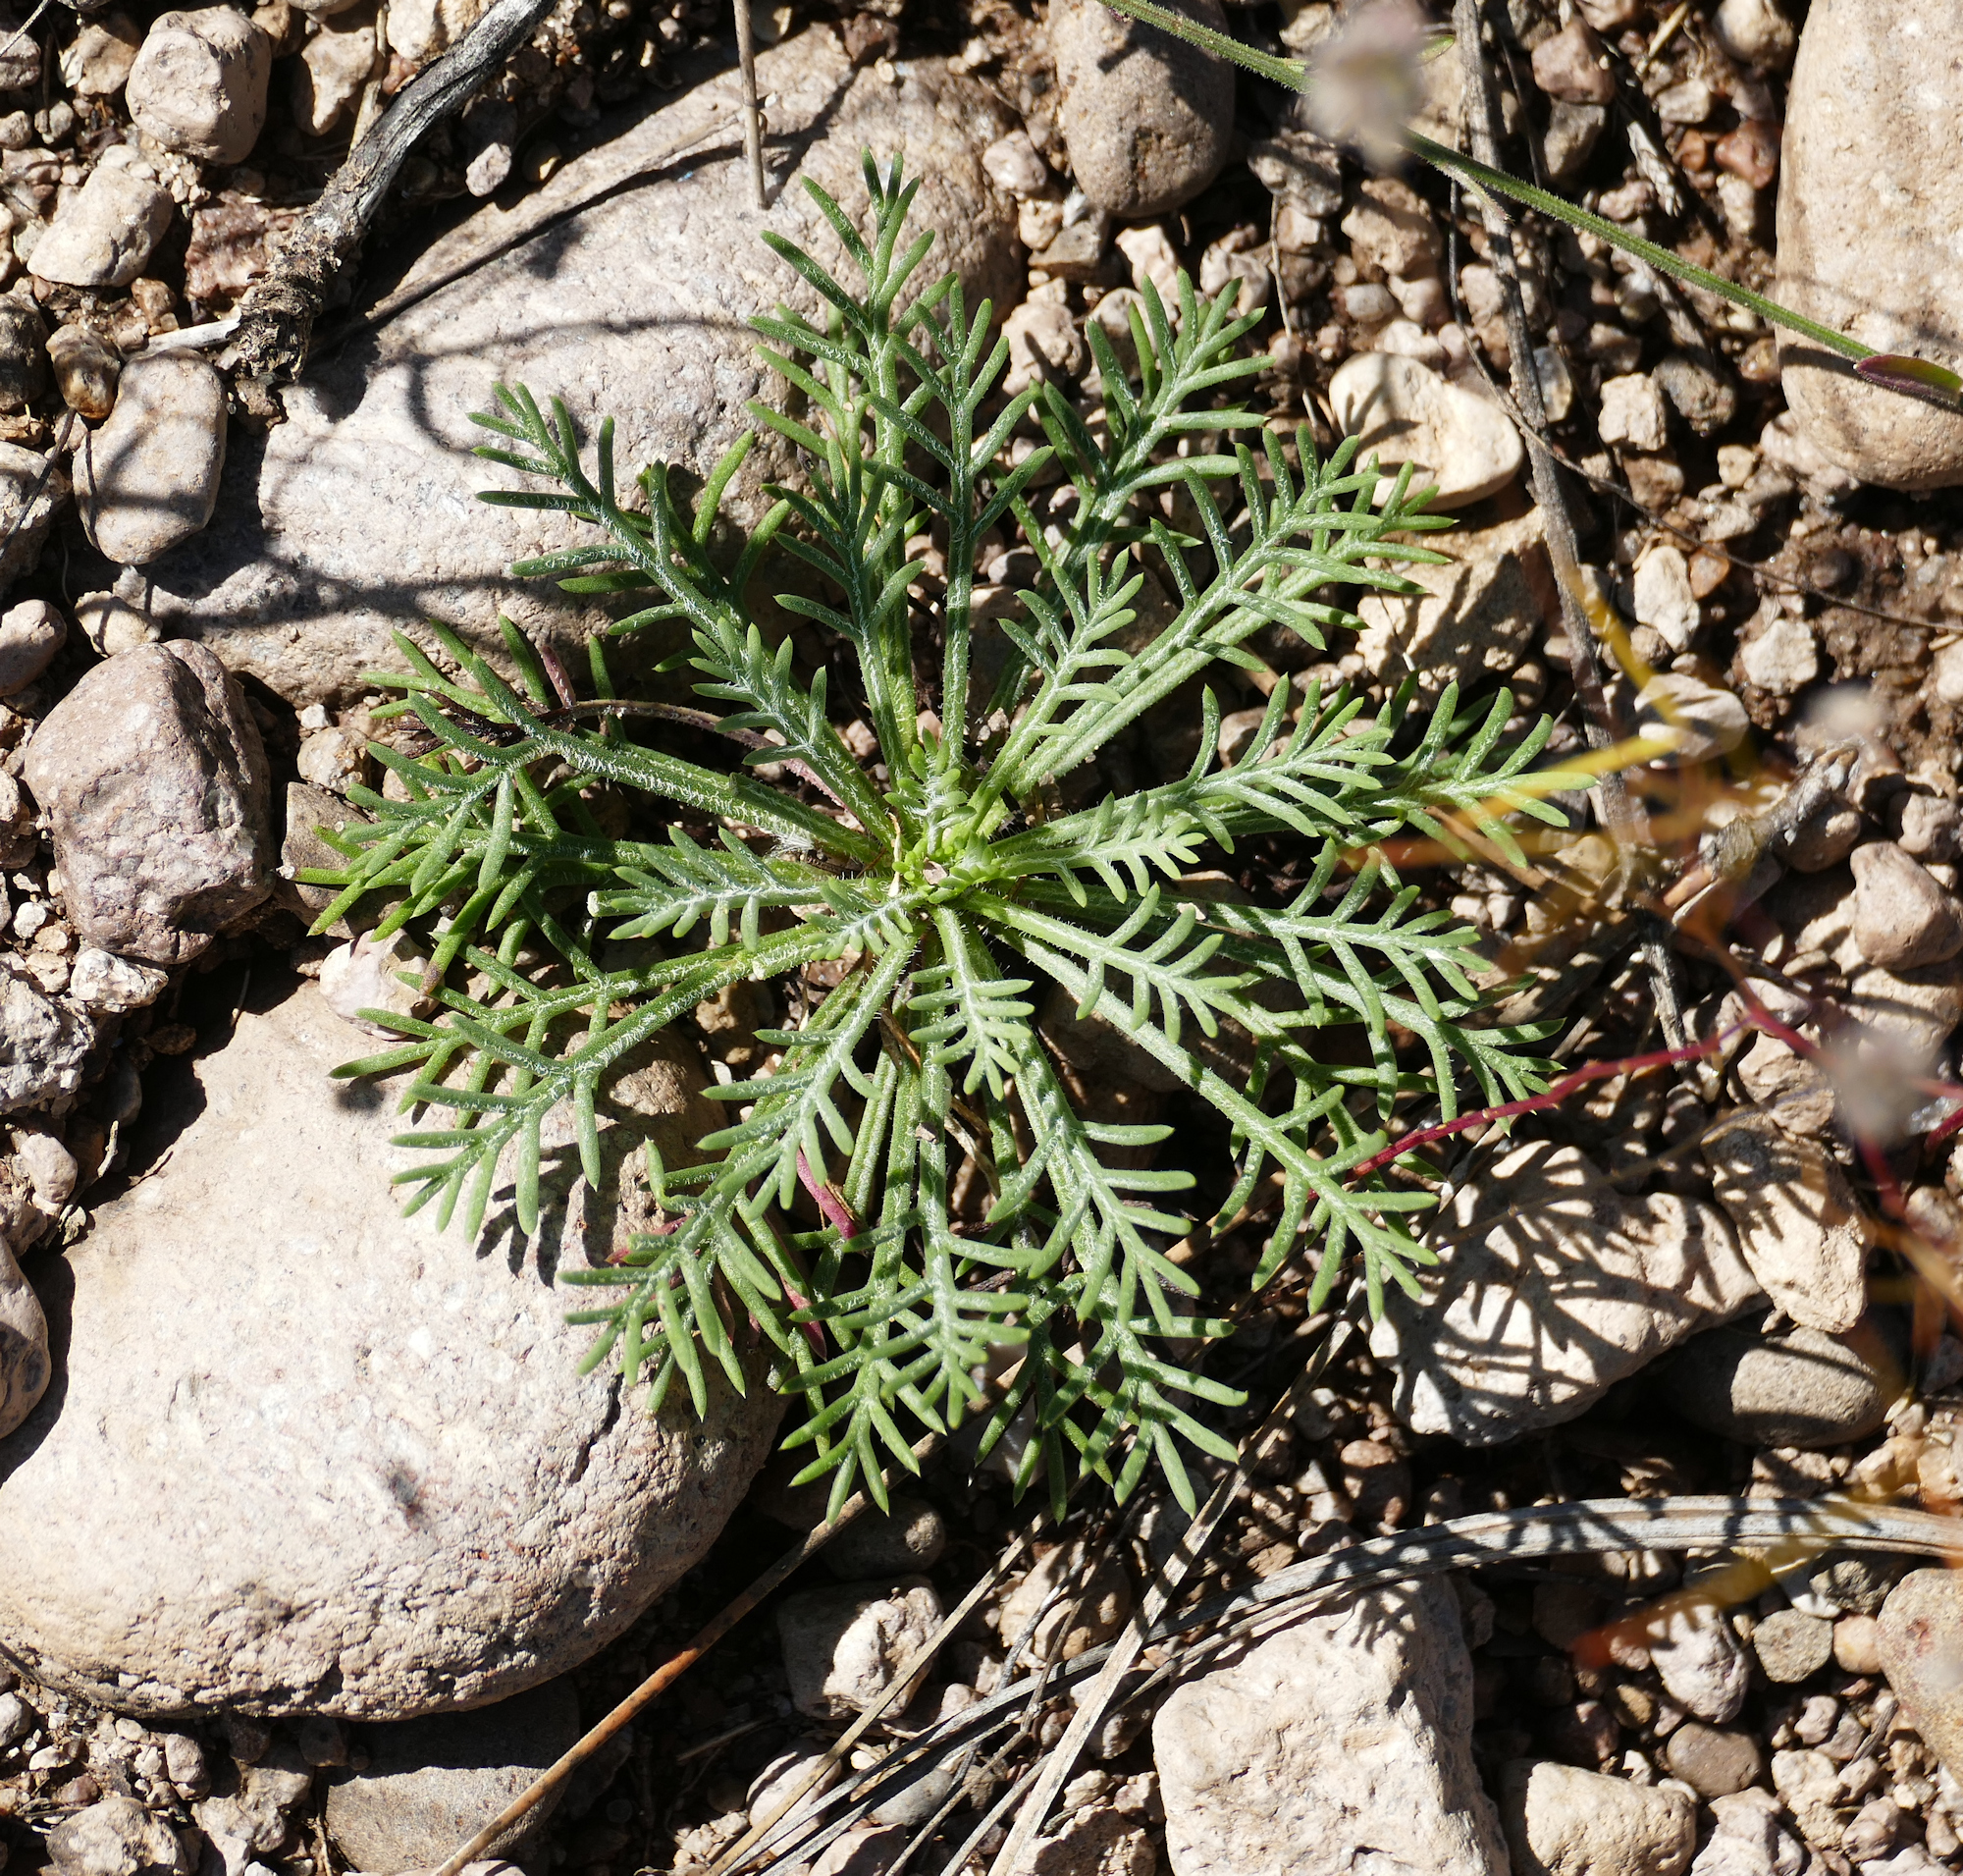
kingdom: Plantae
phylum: Tracheophyta
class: Magnoliopsida
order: Ericales
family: Polemoniaceae
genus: Ipomopsis
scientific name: Ipomopsis aggregata
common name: Scarlet gilia
